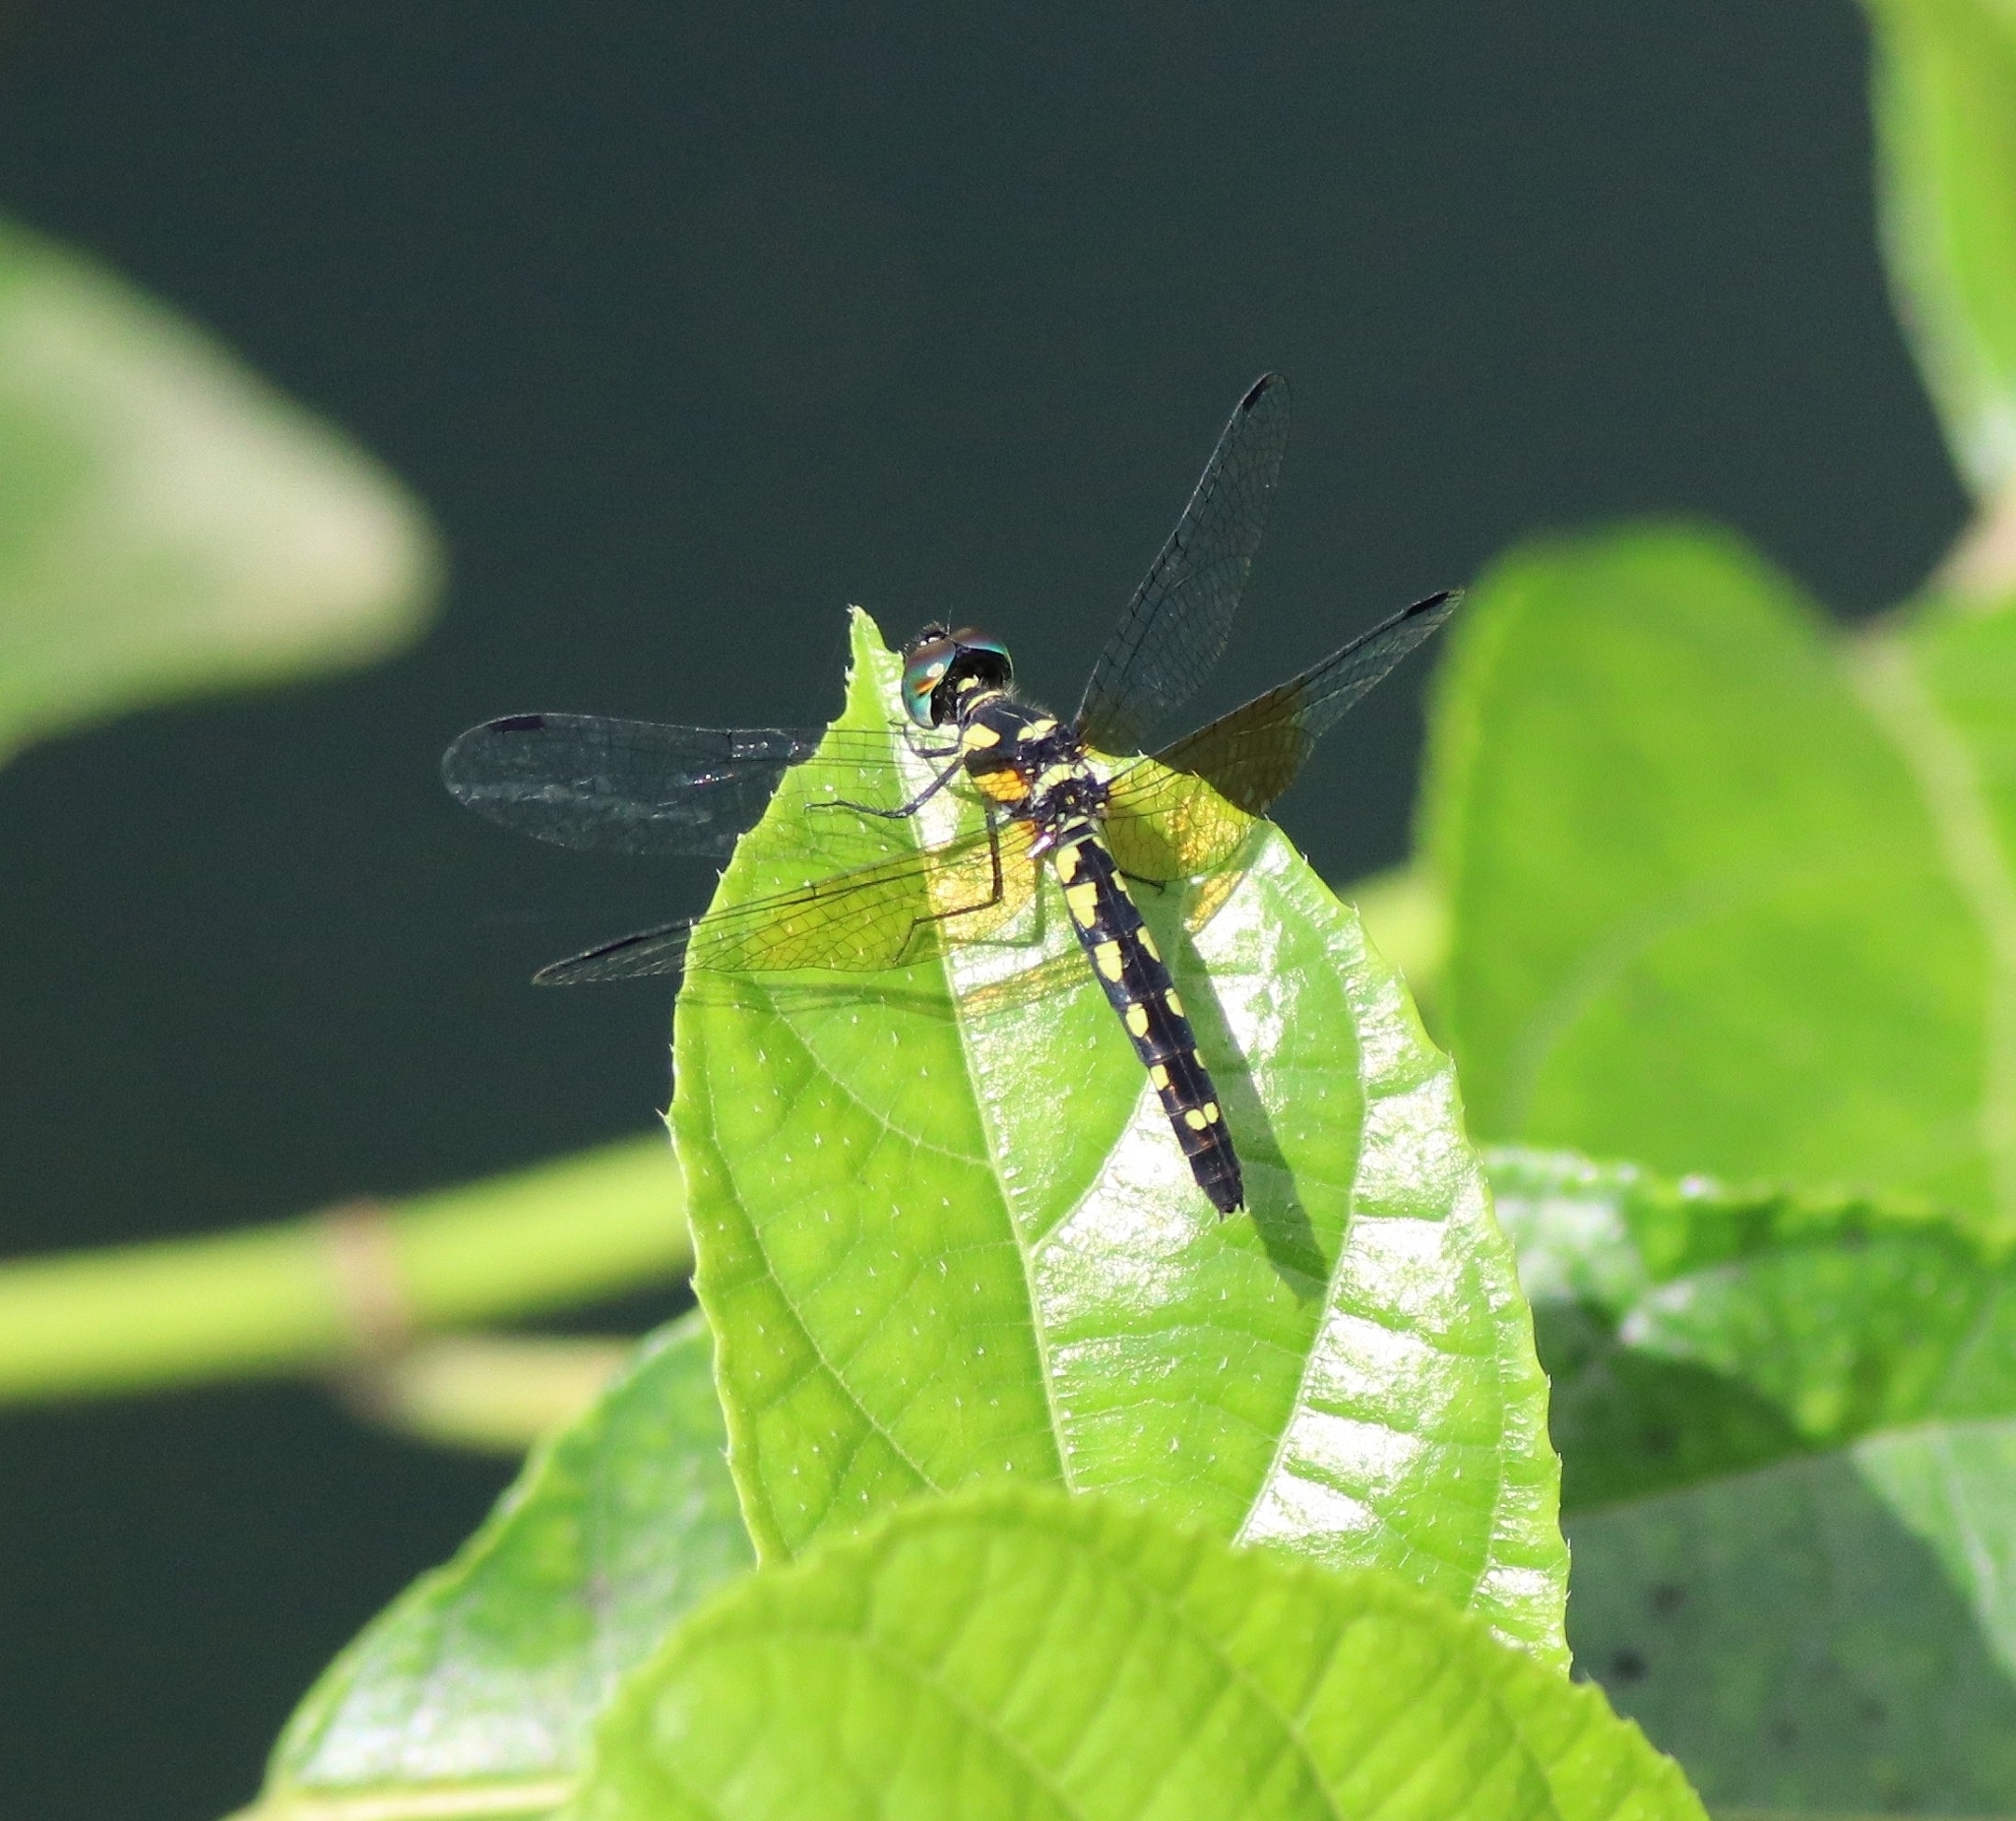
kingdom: Animalia
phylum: Arthropoda
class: Insecta
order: Odonata
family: Libellulidae
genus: Tetrathemis
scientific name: Tetrathemis platyptera
